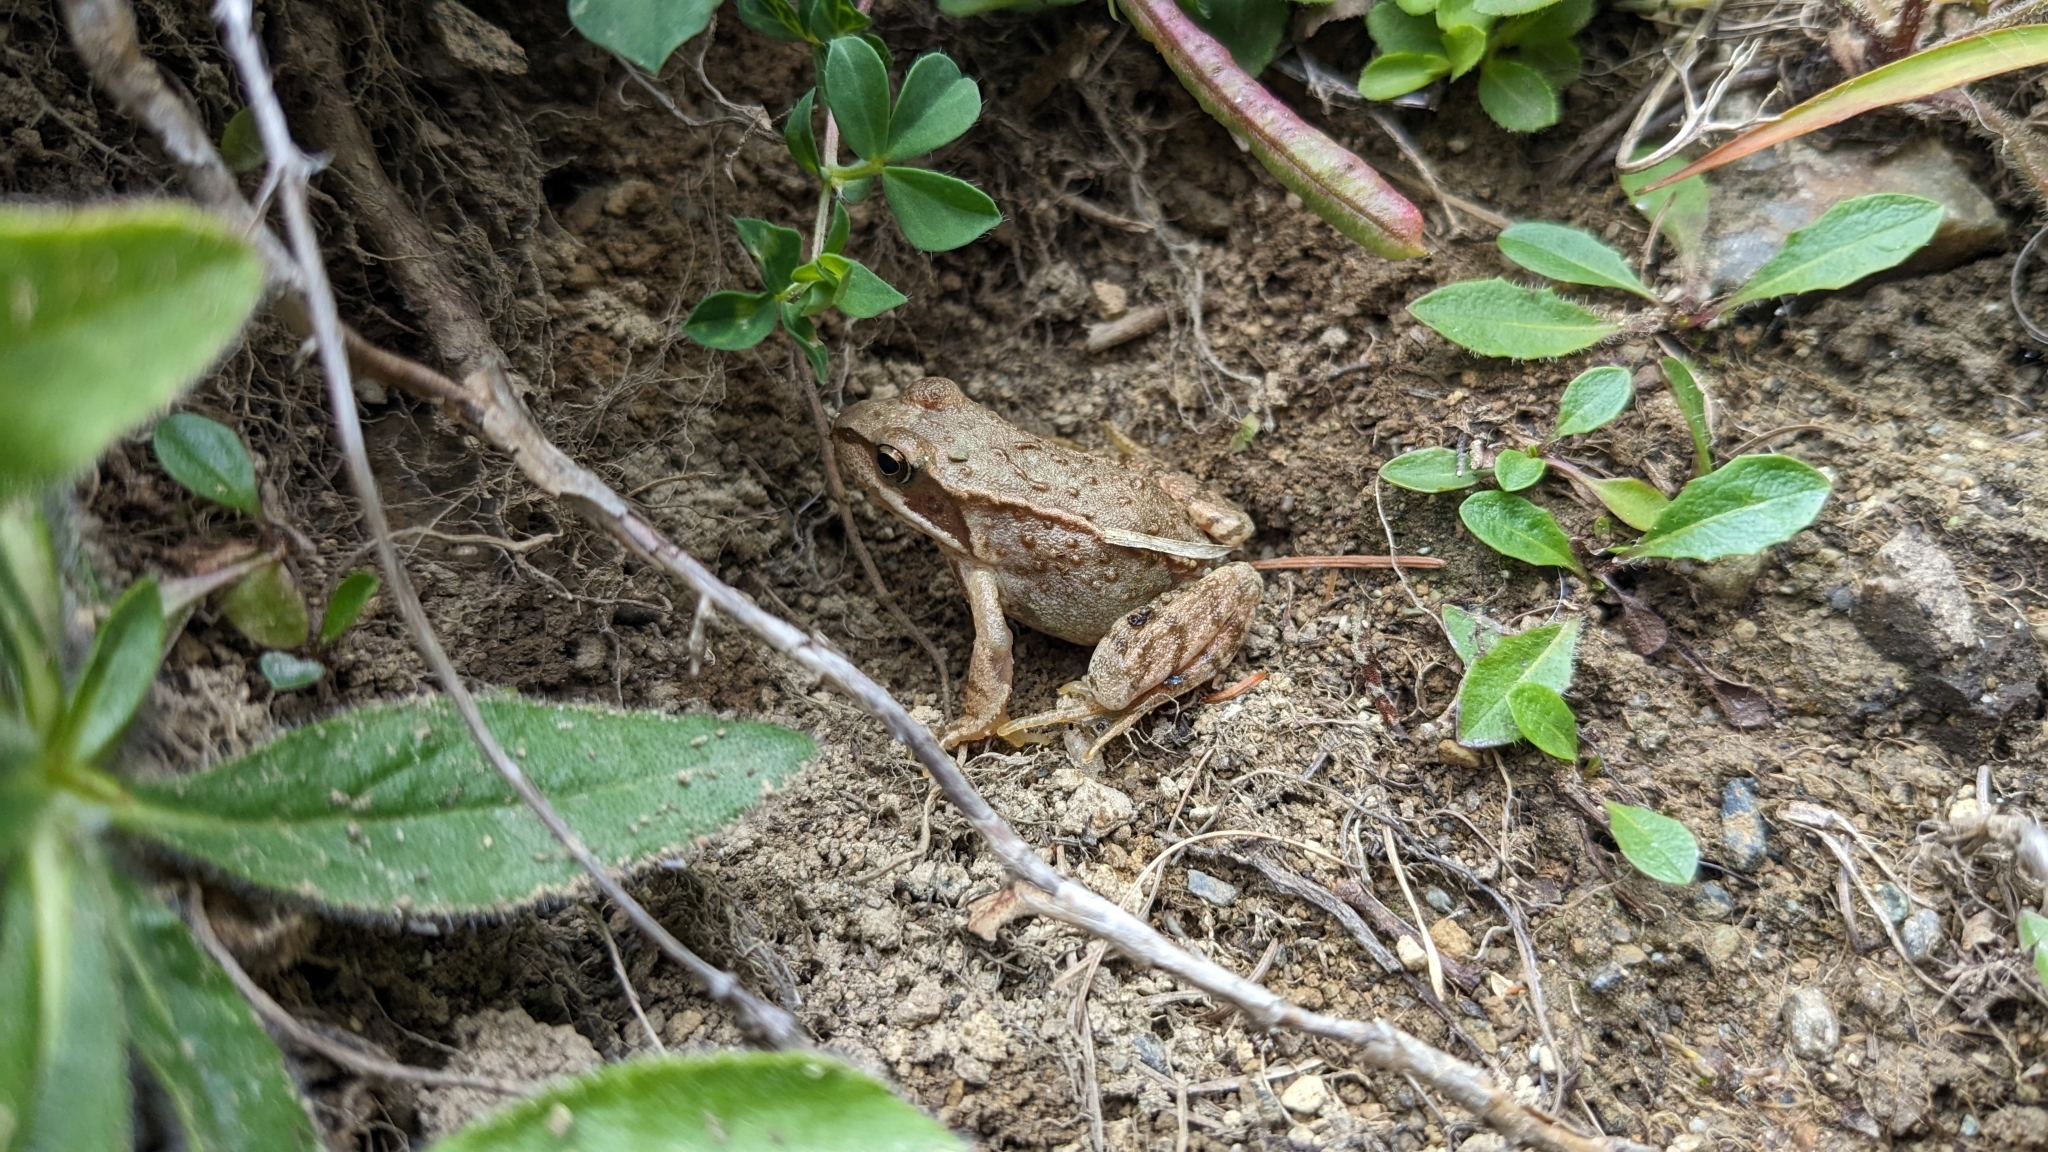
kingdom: Animalia
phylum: Chordata
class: Amphibia
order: Anura
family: Ranidae
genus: Rana
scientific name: Rana temporaria
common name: Common frog
